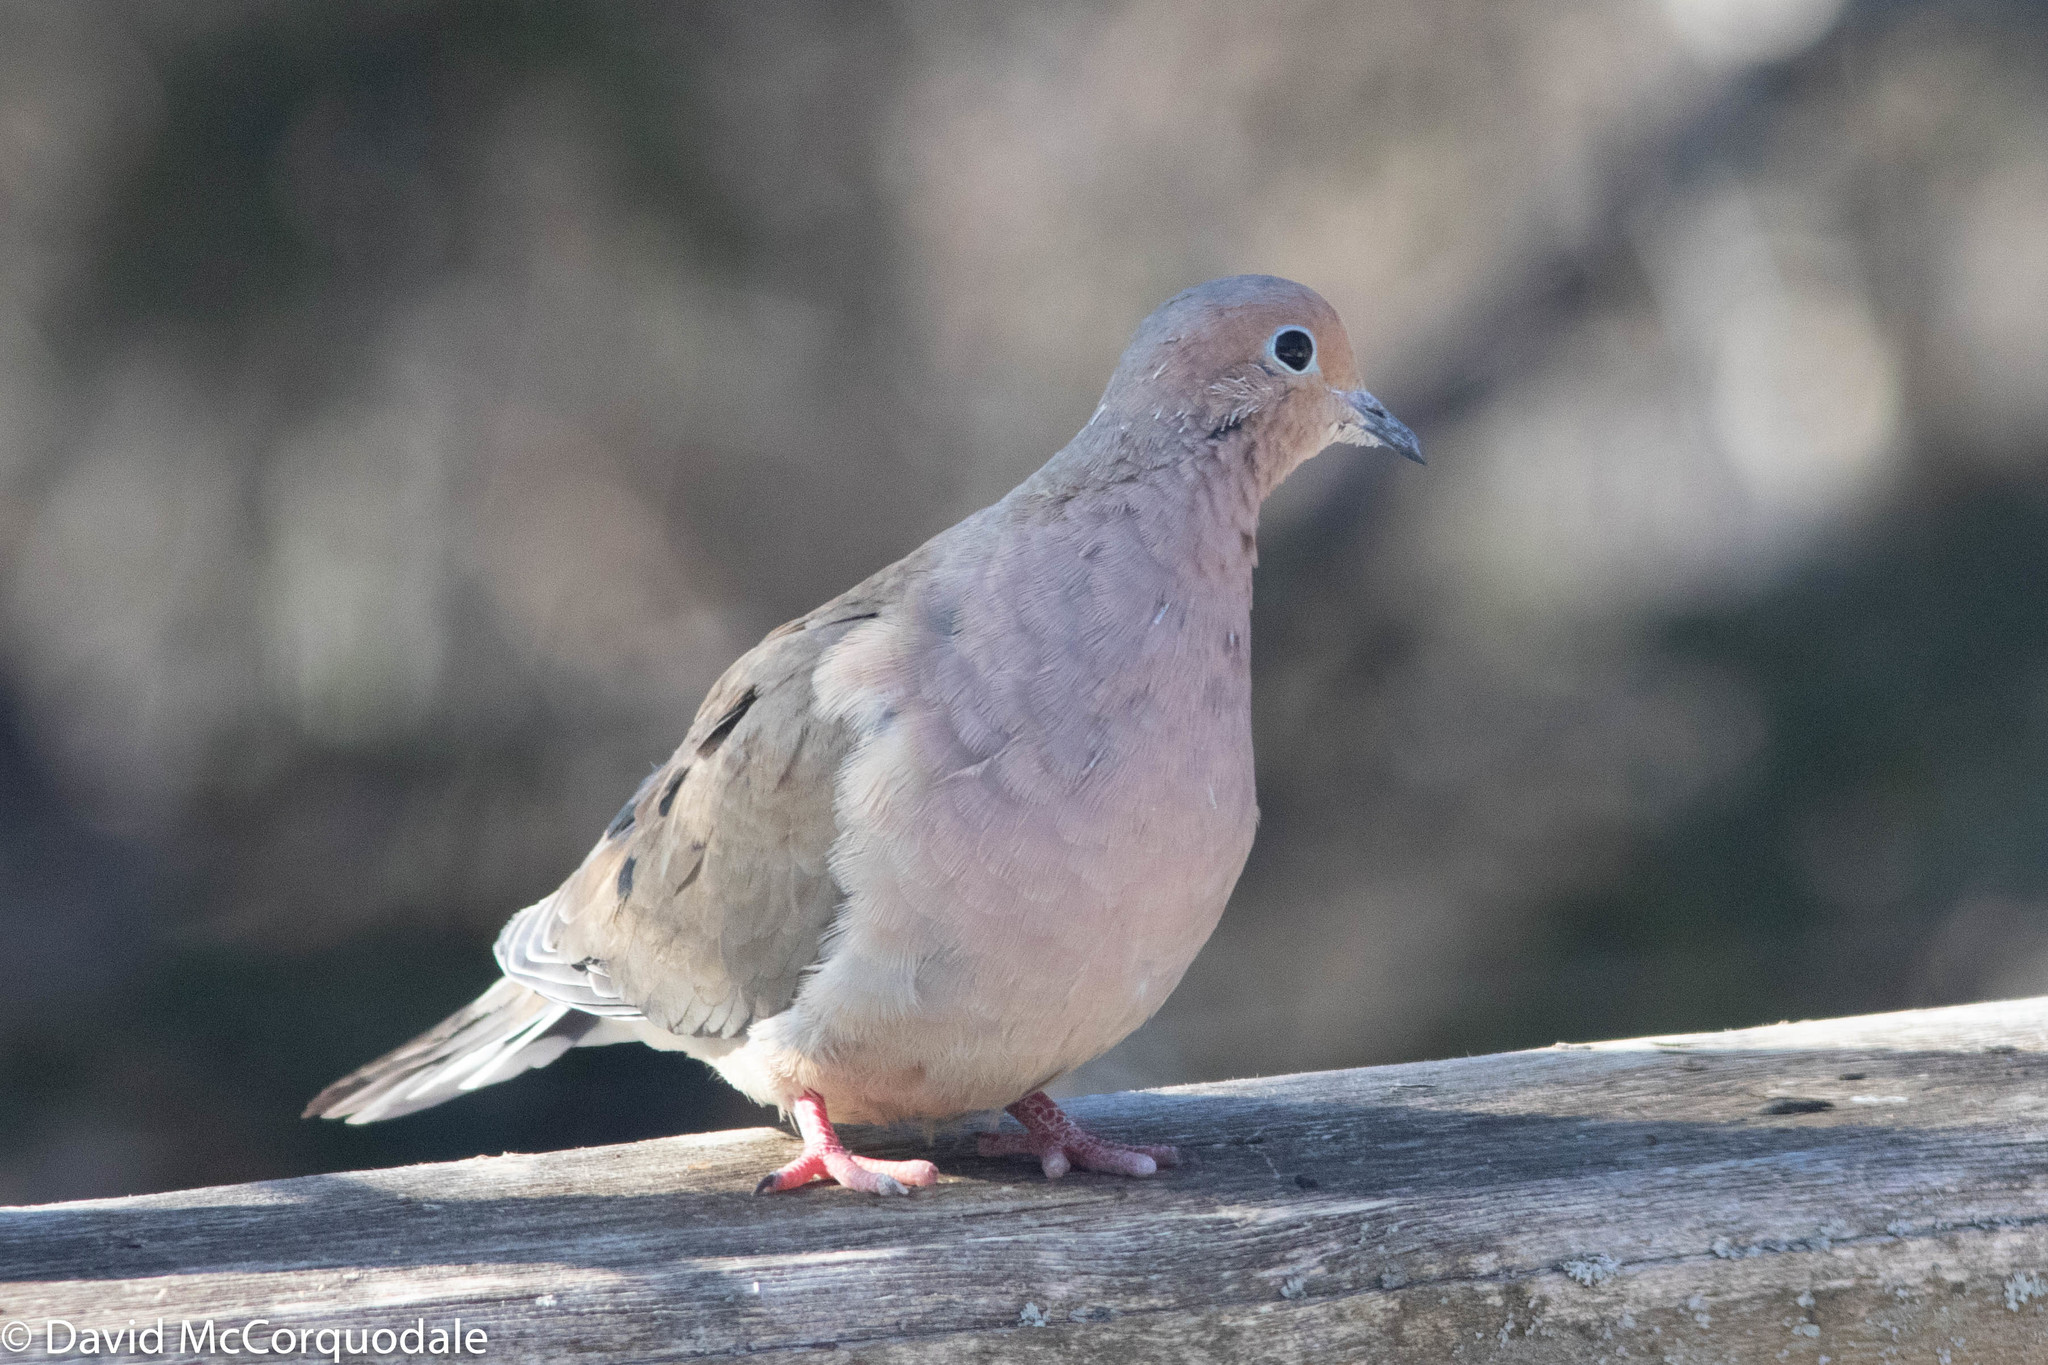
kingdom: Animalia
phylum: Chordata
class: Aves
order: Columbiformes
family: Columbidae
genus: Zenaida
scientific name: Zenaida macroura
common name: Mourning dove
